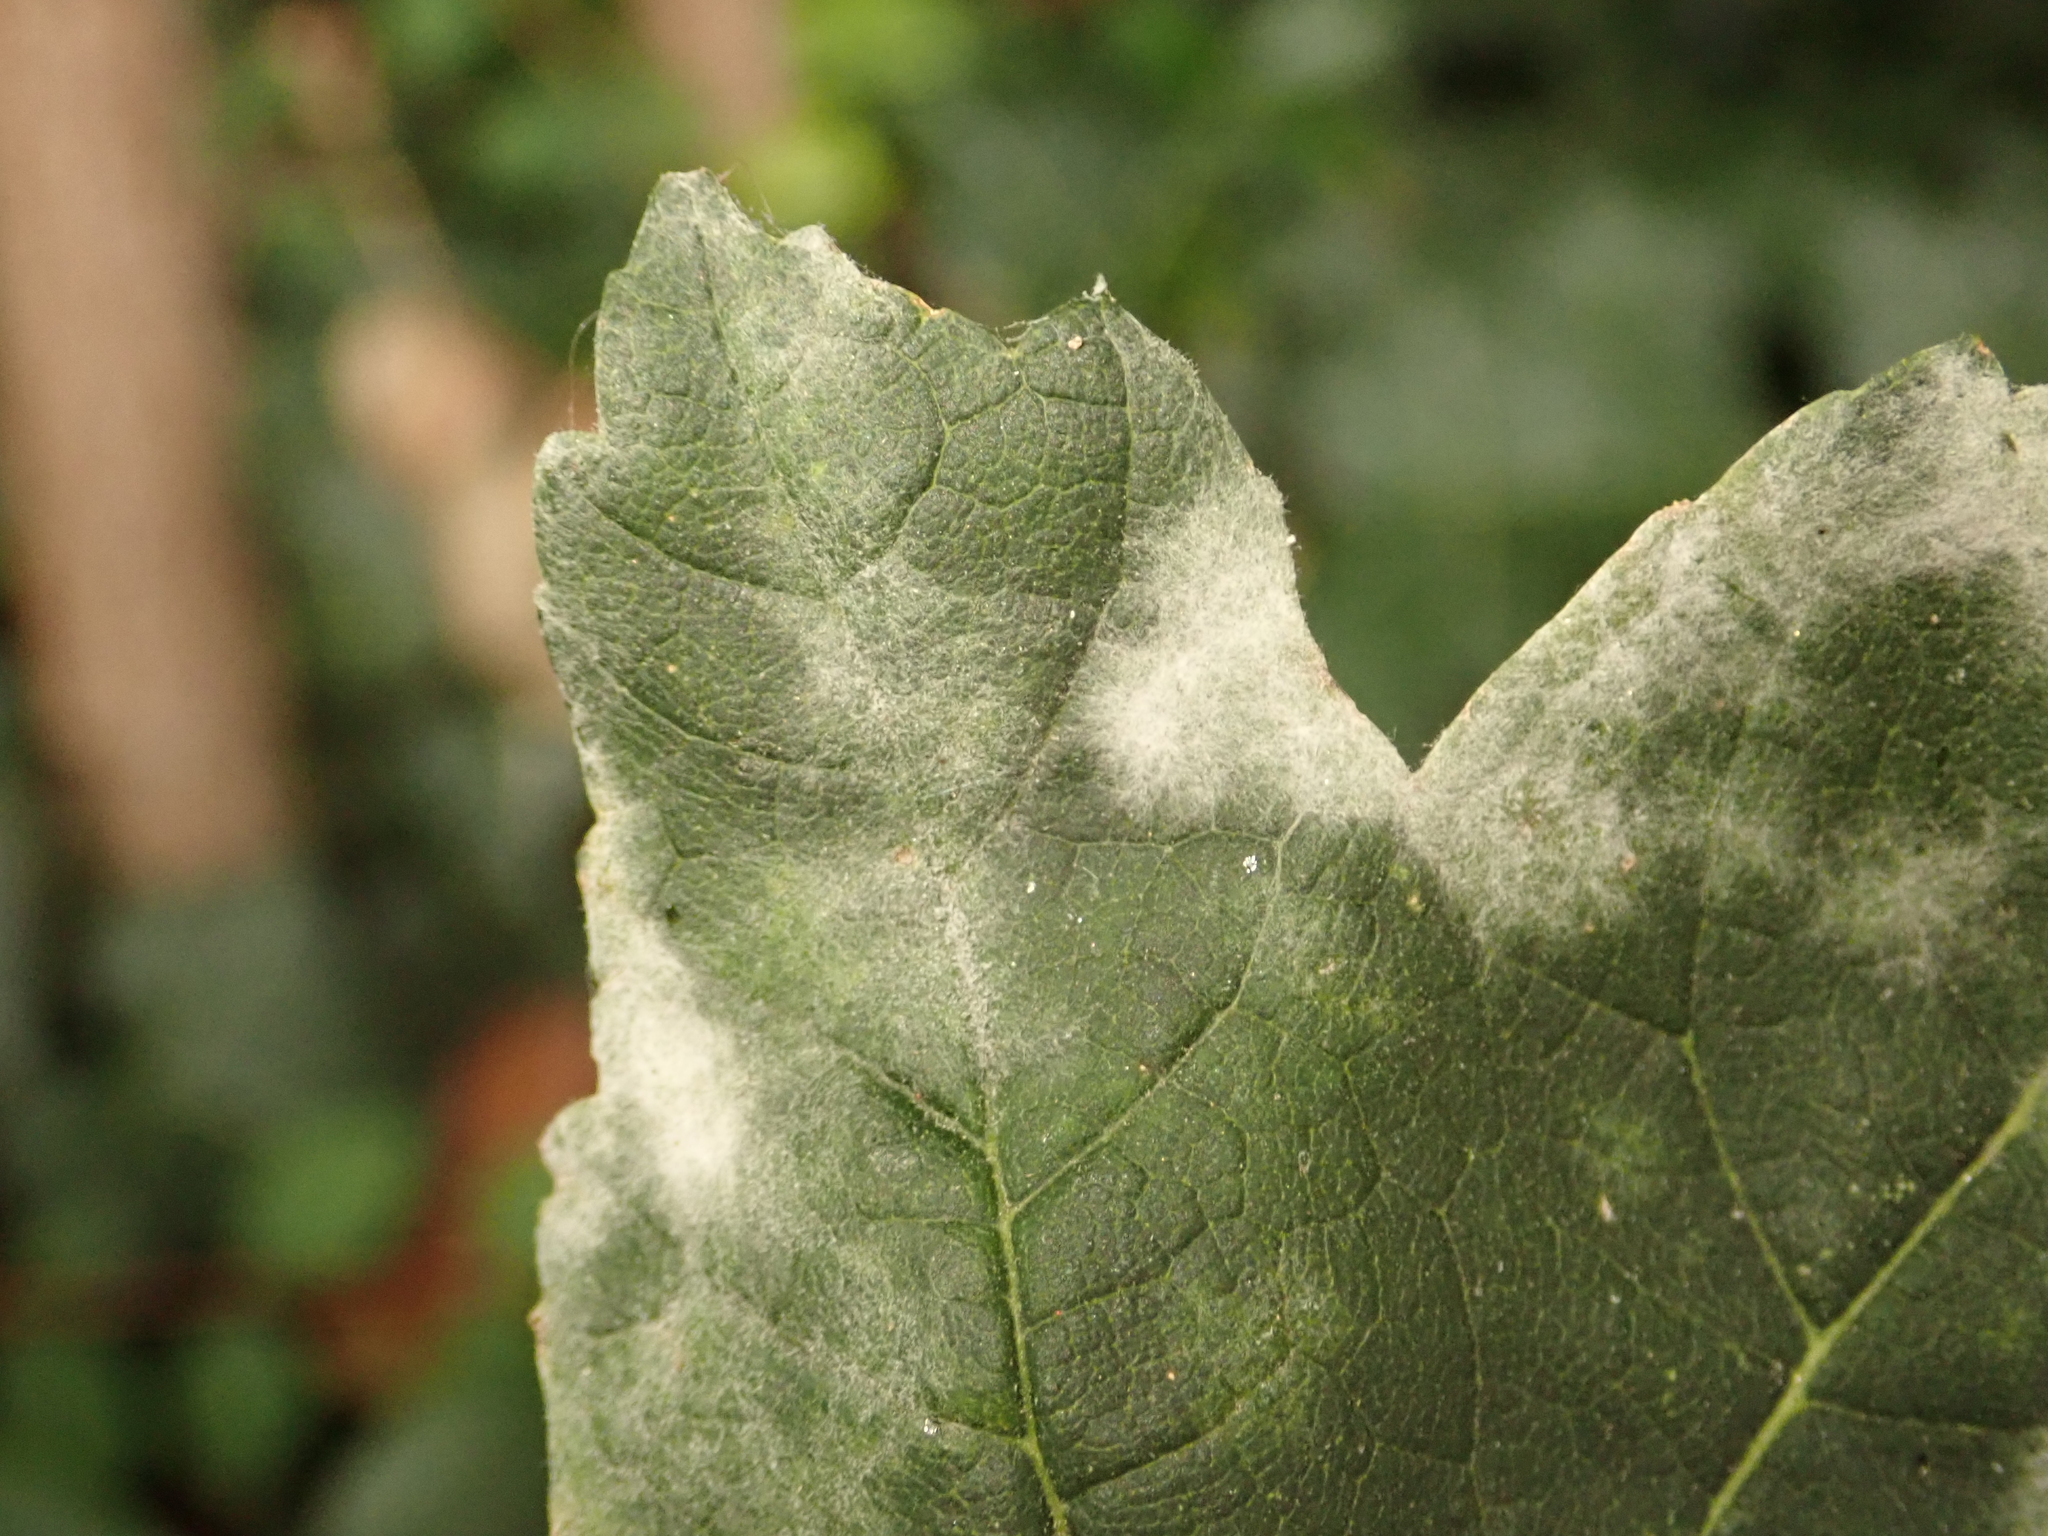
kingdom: Fungi
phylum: Ascomycota
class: Leotiomycetes
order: Helotiales
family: Erysiphaceae
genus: Sawadaea
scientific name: Sawadaea bicornis
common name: Maple mildew
